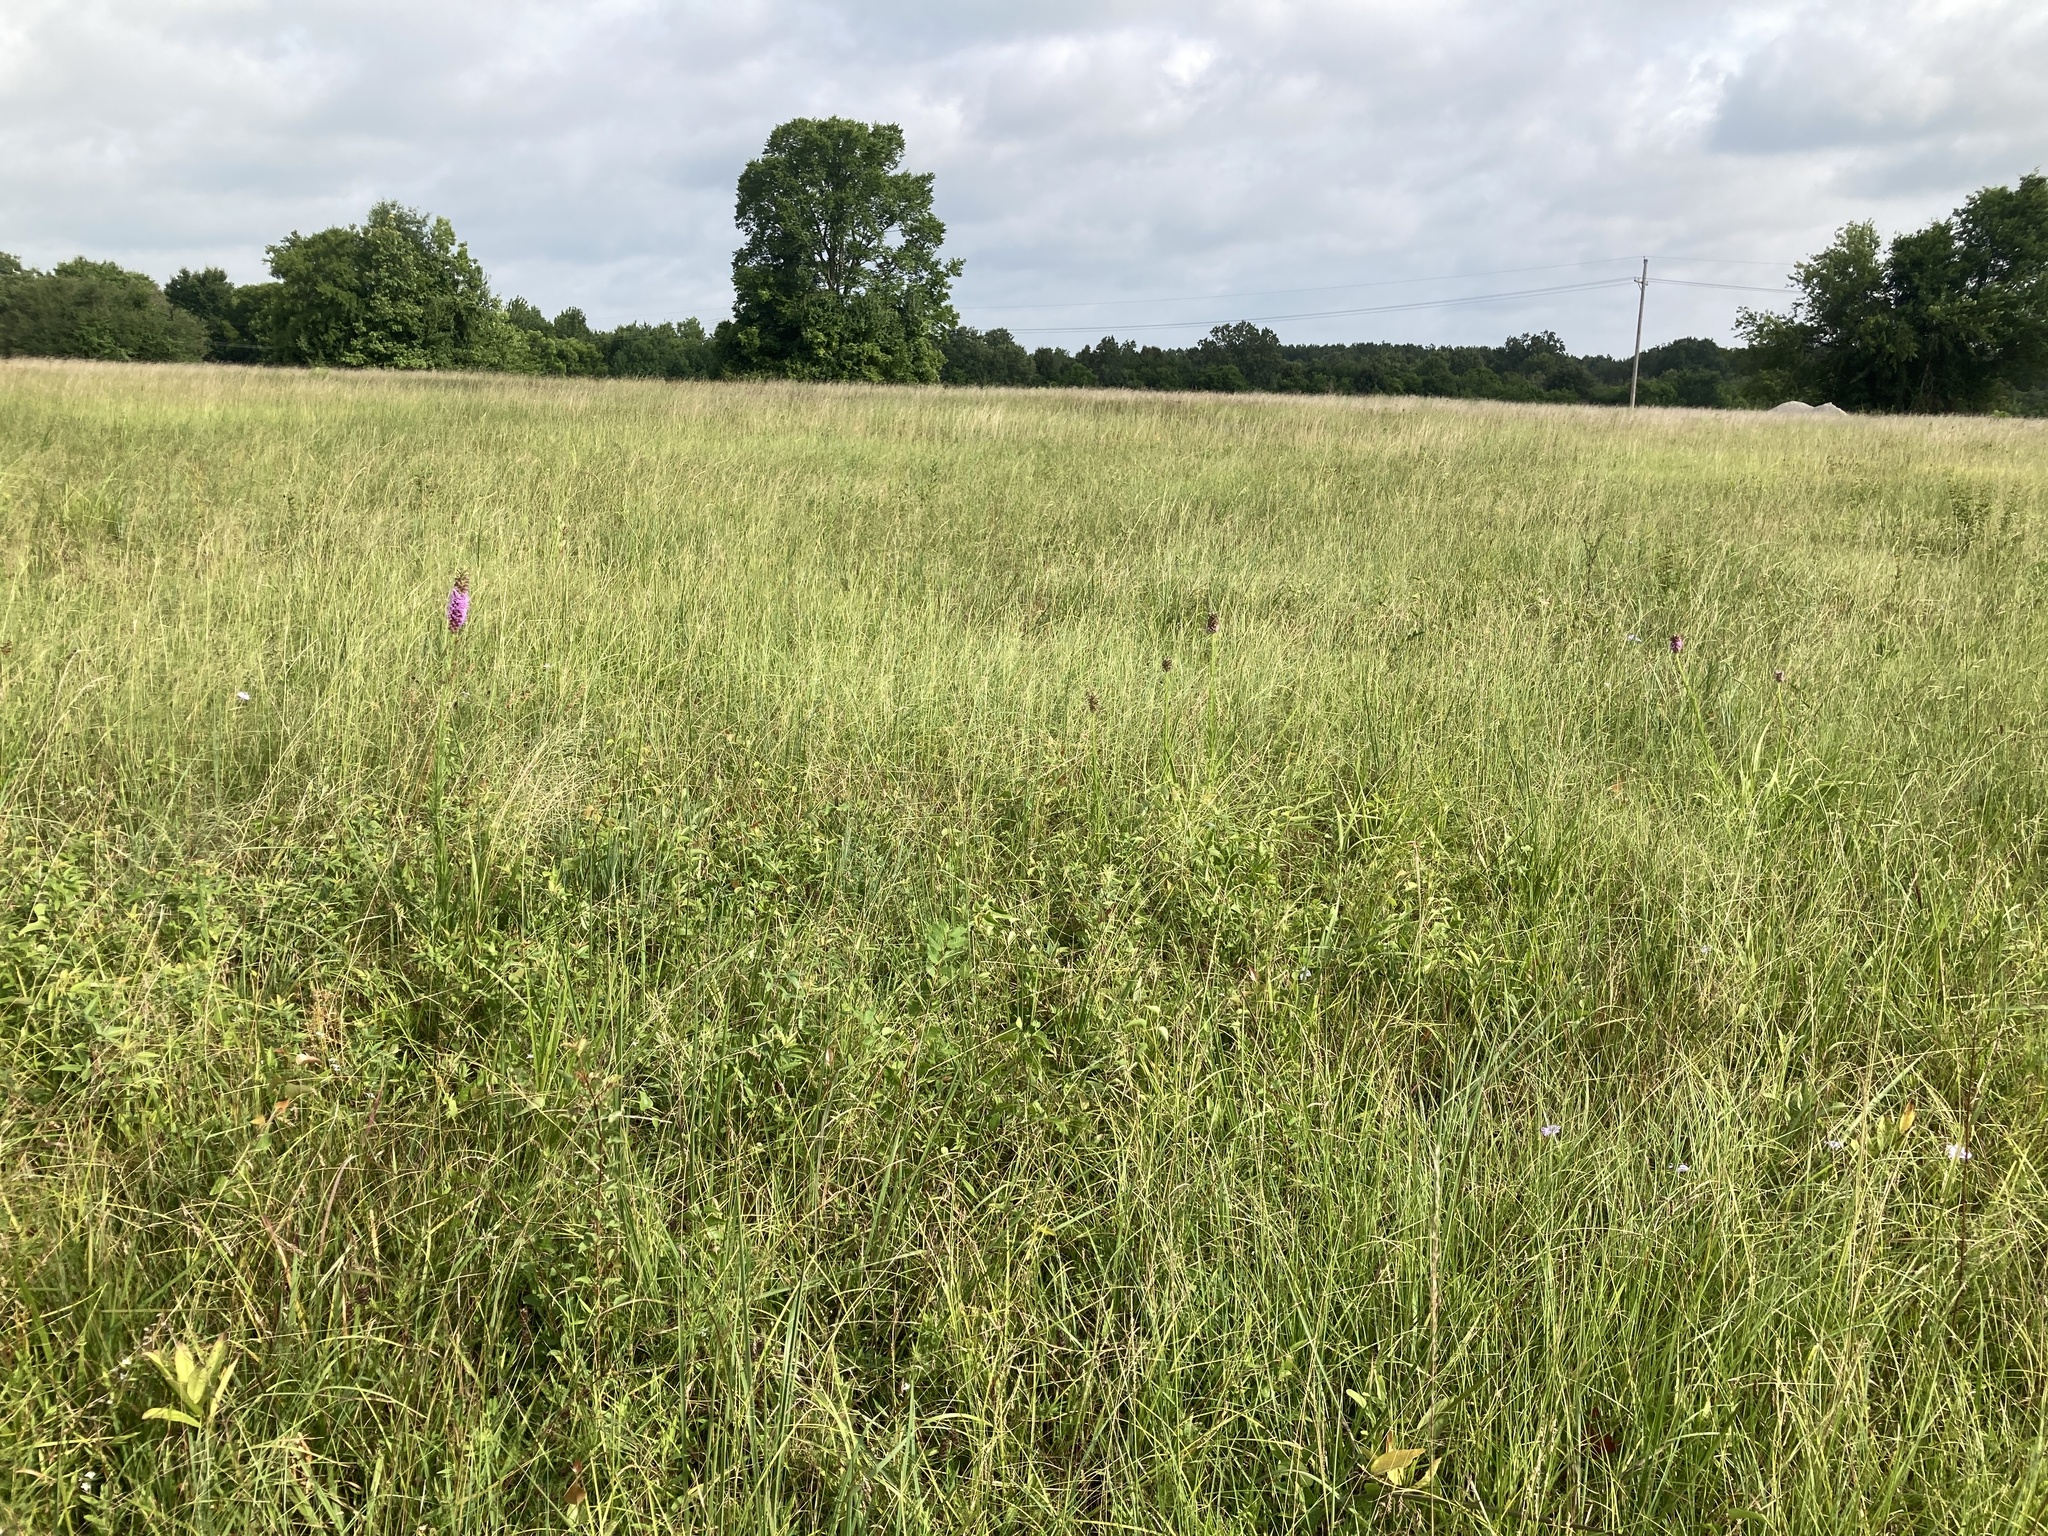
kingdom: Plantae
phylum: Tracheophyta
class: Magnoliopsida
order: Asterales
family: Asteraceae
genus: Liatris
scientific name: Liatris pycnostachya
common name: Cattail gayfeather
